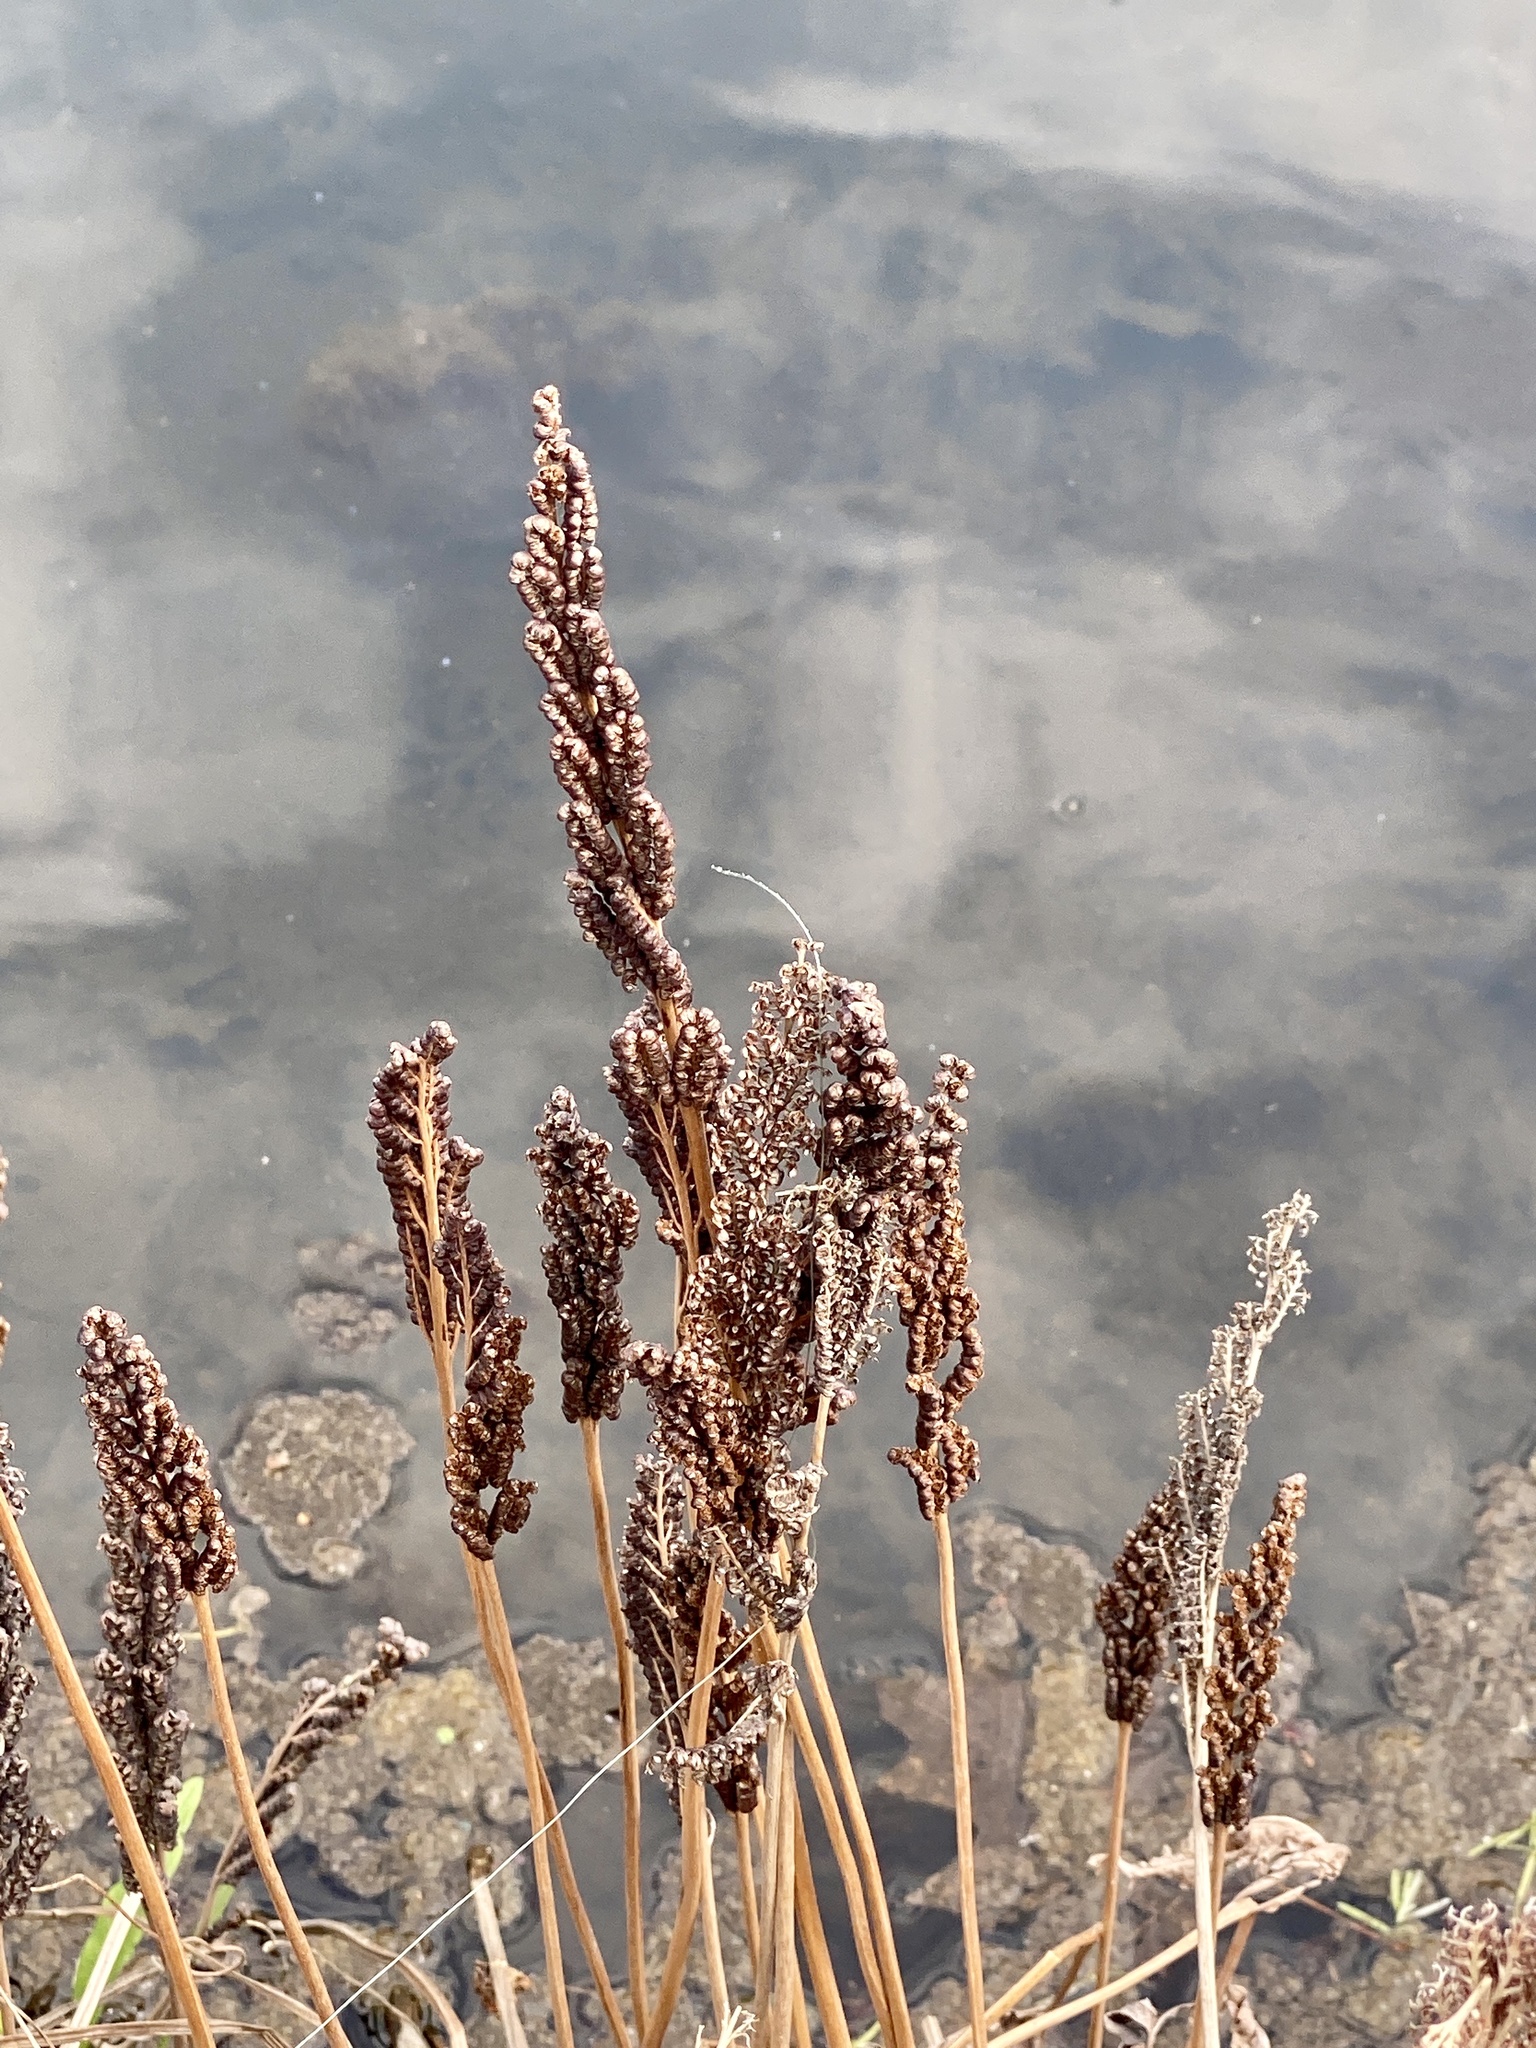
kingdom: Plantae
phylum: Tracheophyta
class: Polypodiopsida
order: Polypodiales
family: Onocleaceae
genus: Onoclea
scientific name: Onoclea sensibilis
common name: Sensitive fern
